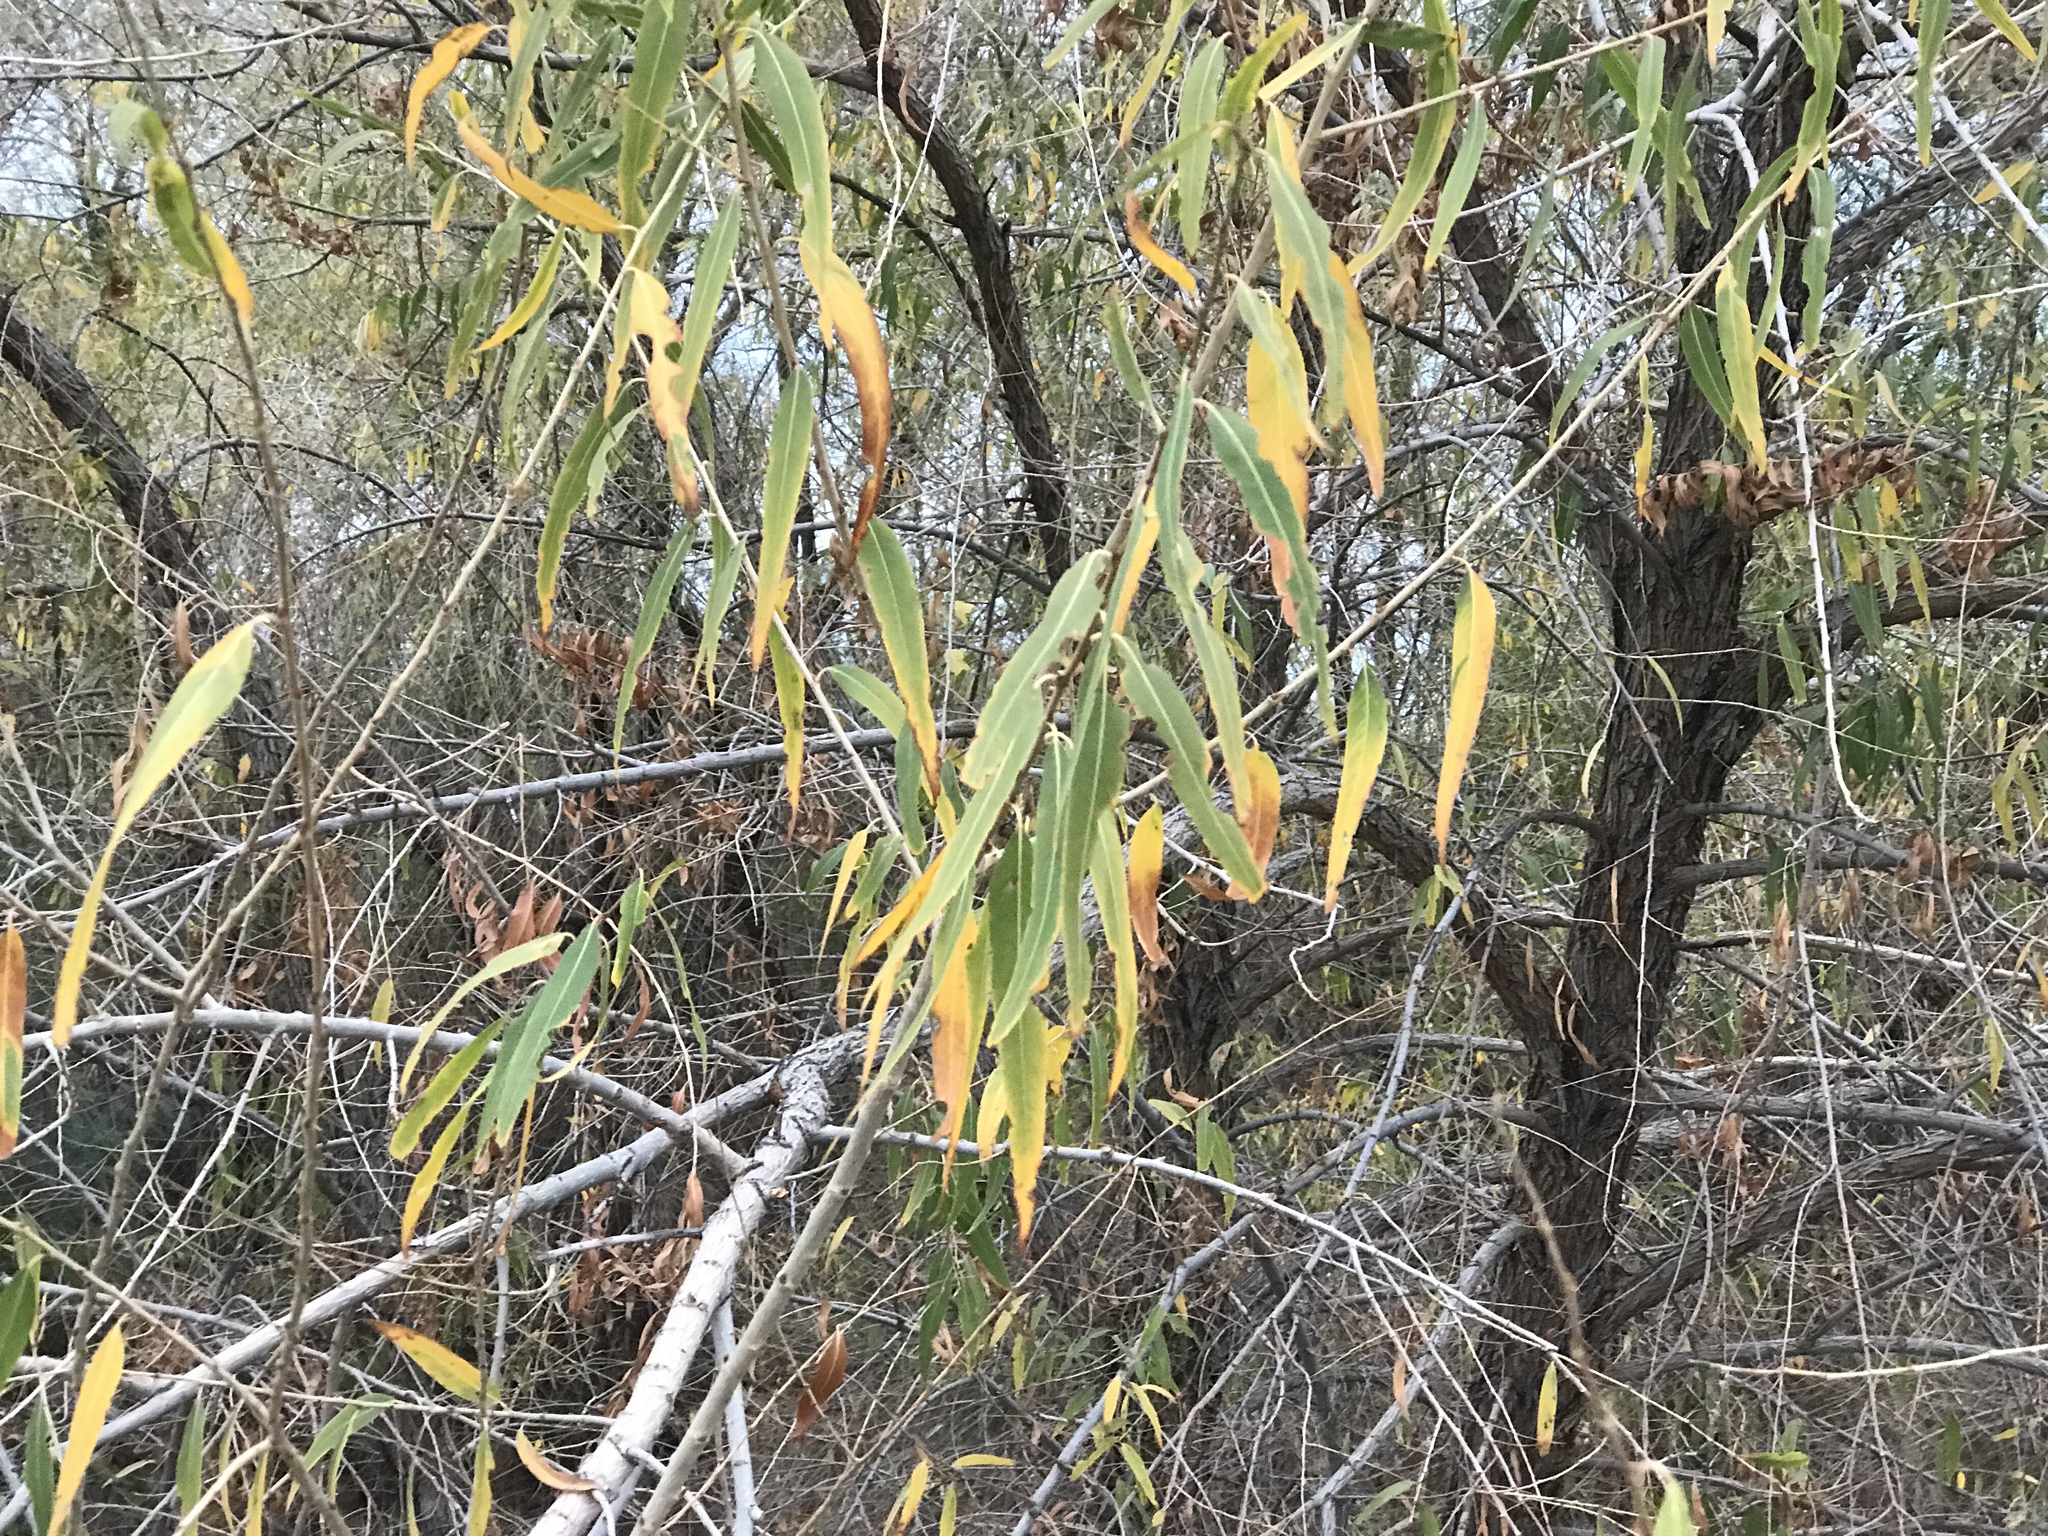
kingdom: Plantae
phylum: Tracheophyta
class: Magnoliopsida
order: Malpighiales
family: Salicaceae
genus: Salix
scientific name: Salix gooddingii
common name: Goodding's willow
